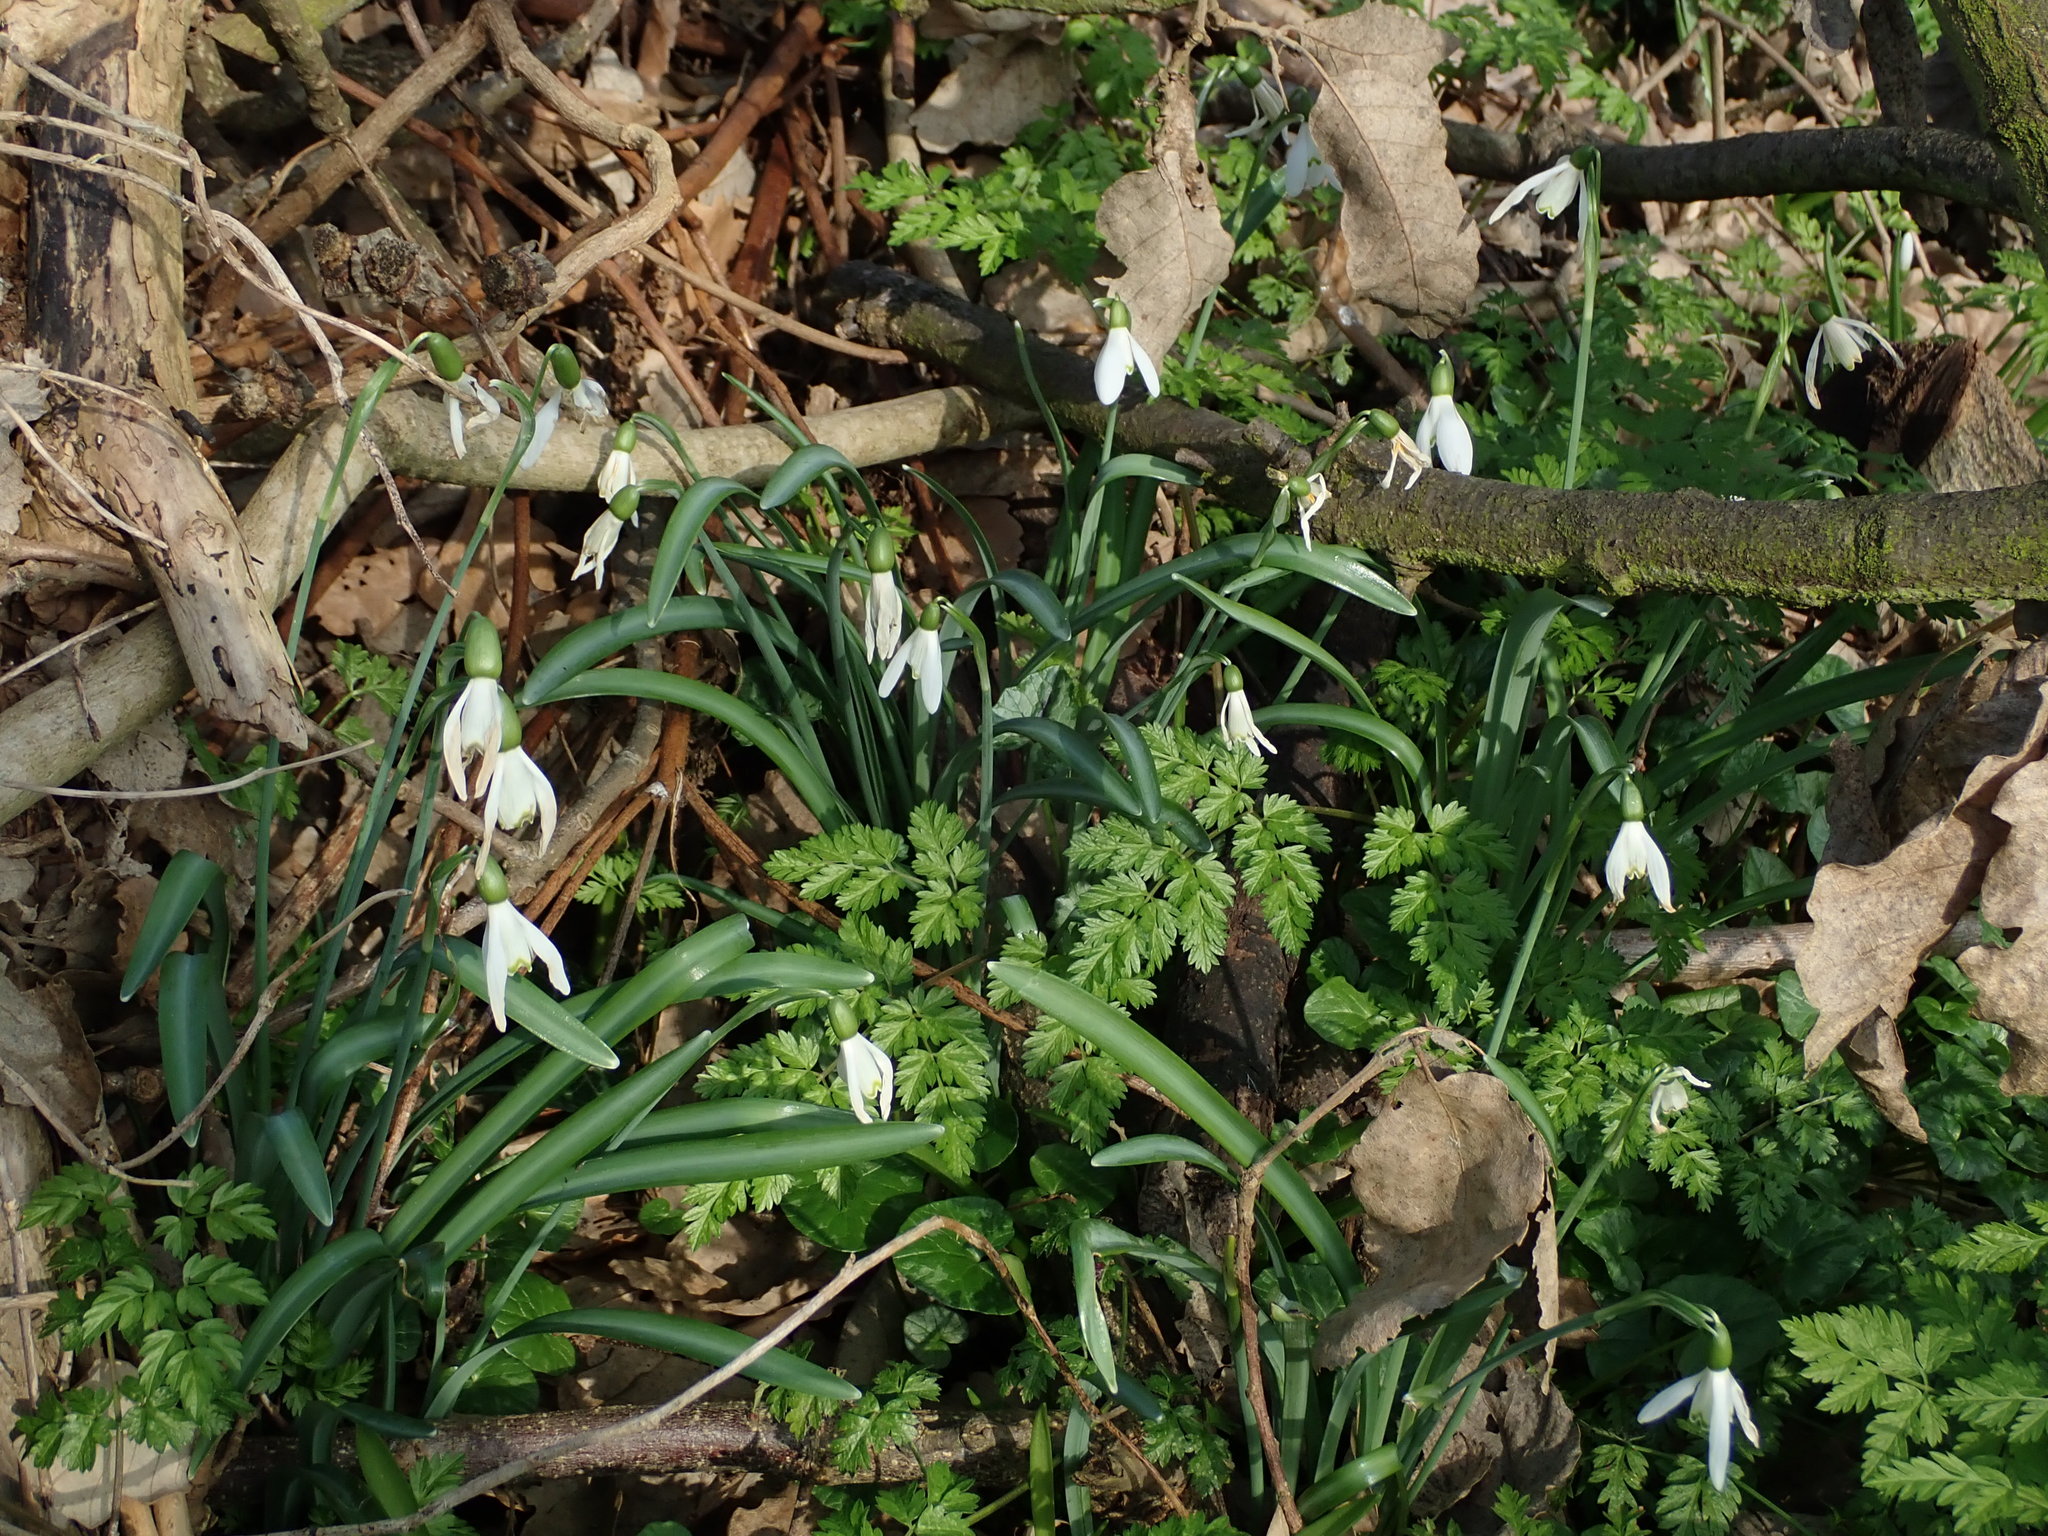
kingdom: Plantae
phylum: Tracheophyta
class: Liliopsida
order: Asparagales
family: Amaryllidaceae
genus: Galanthus
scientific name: Galanthus nivalis
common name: Snowdrop
